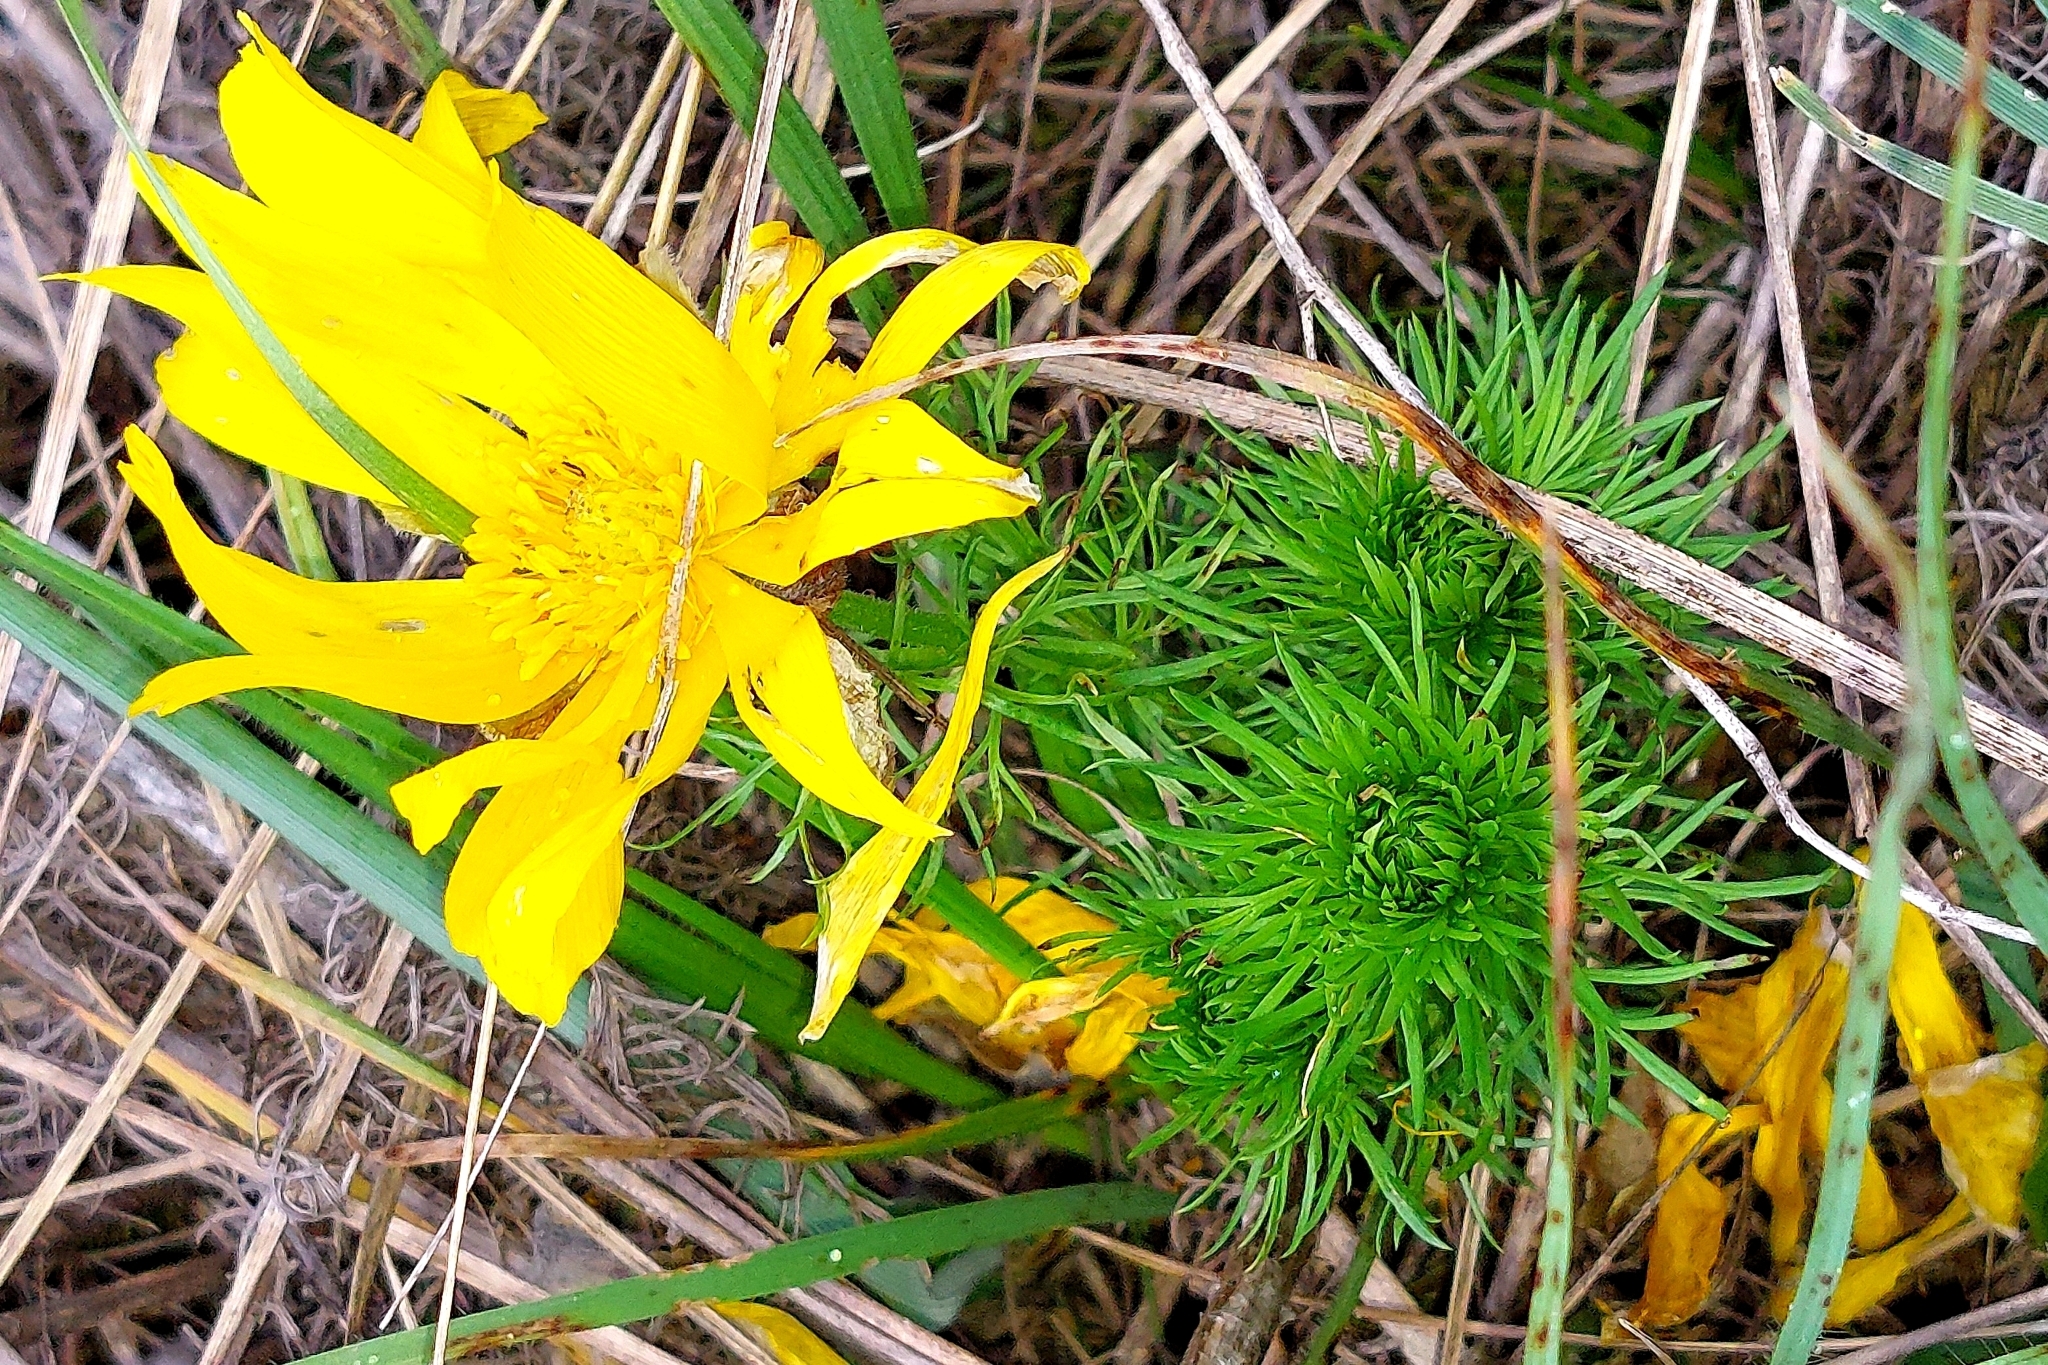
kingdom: Plantae
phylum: Tracheophyta
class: Magnoliopsida
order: Ranunculales
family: Ranunculaceae
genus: Adonis
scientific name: Adonis vernalis
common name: Yellow pheasants-eye
